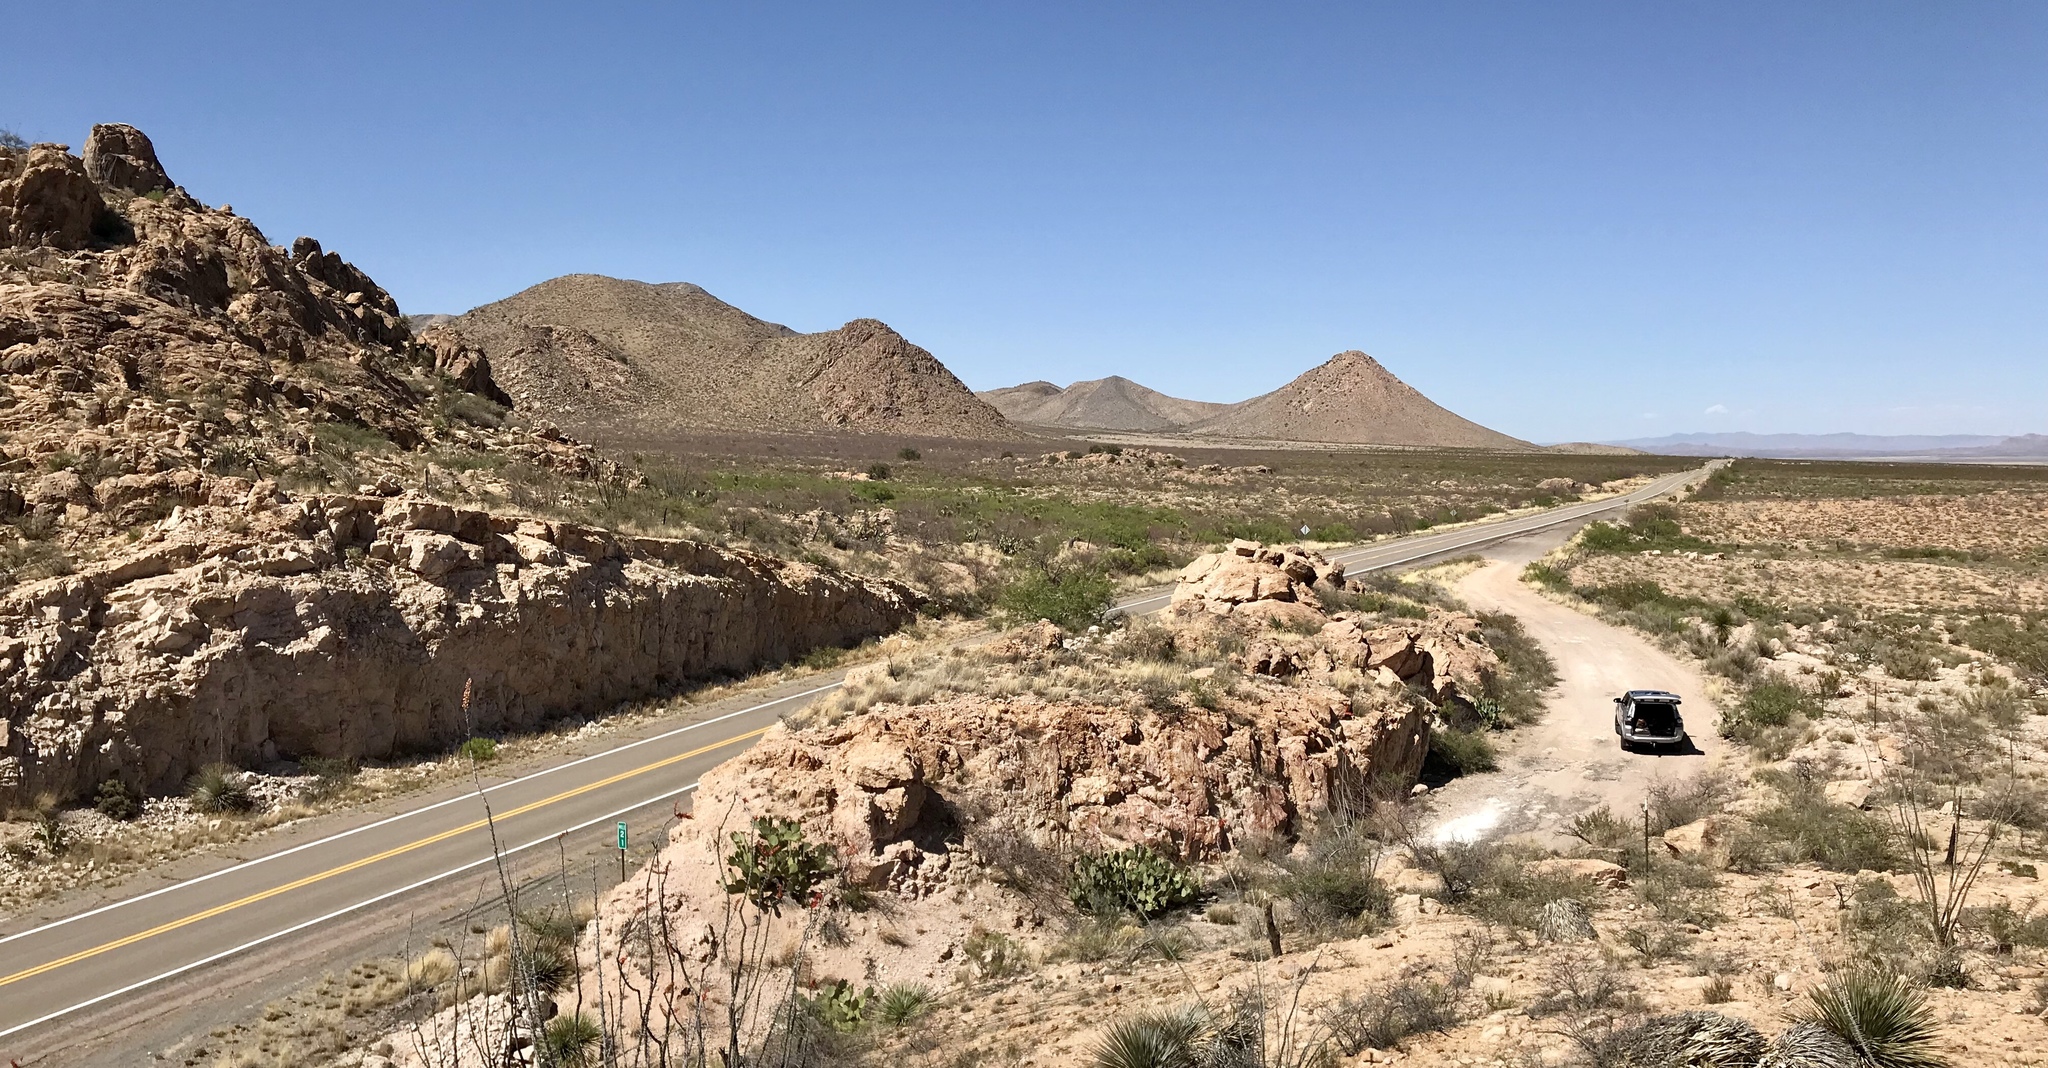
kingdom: Plantae
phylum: Tracheophyta
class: Magnoliopsida
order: Ericales
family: Fouquieriaceae
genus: Fouquieria
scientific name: Fouquieria splendens
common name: Vine-cactus
